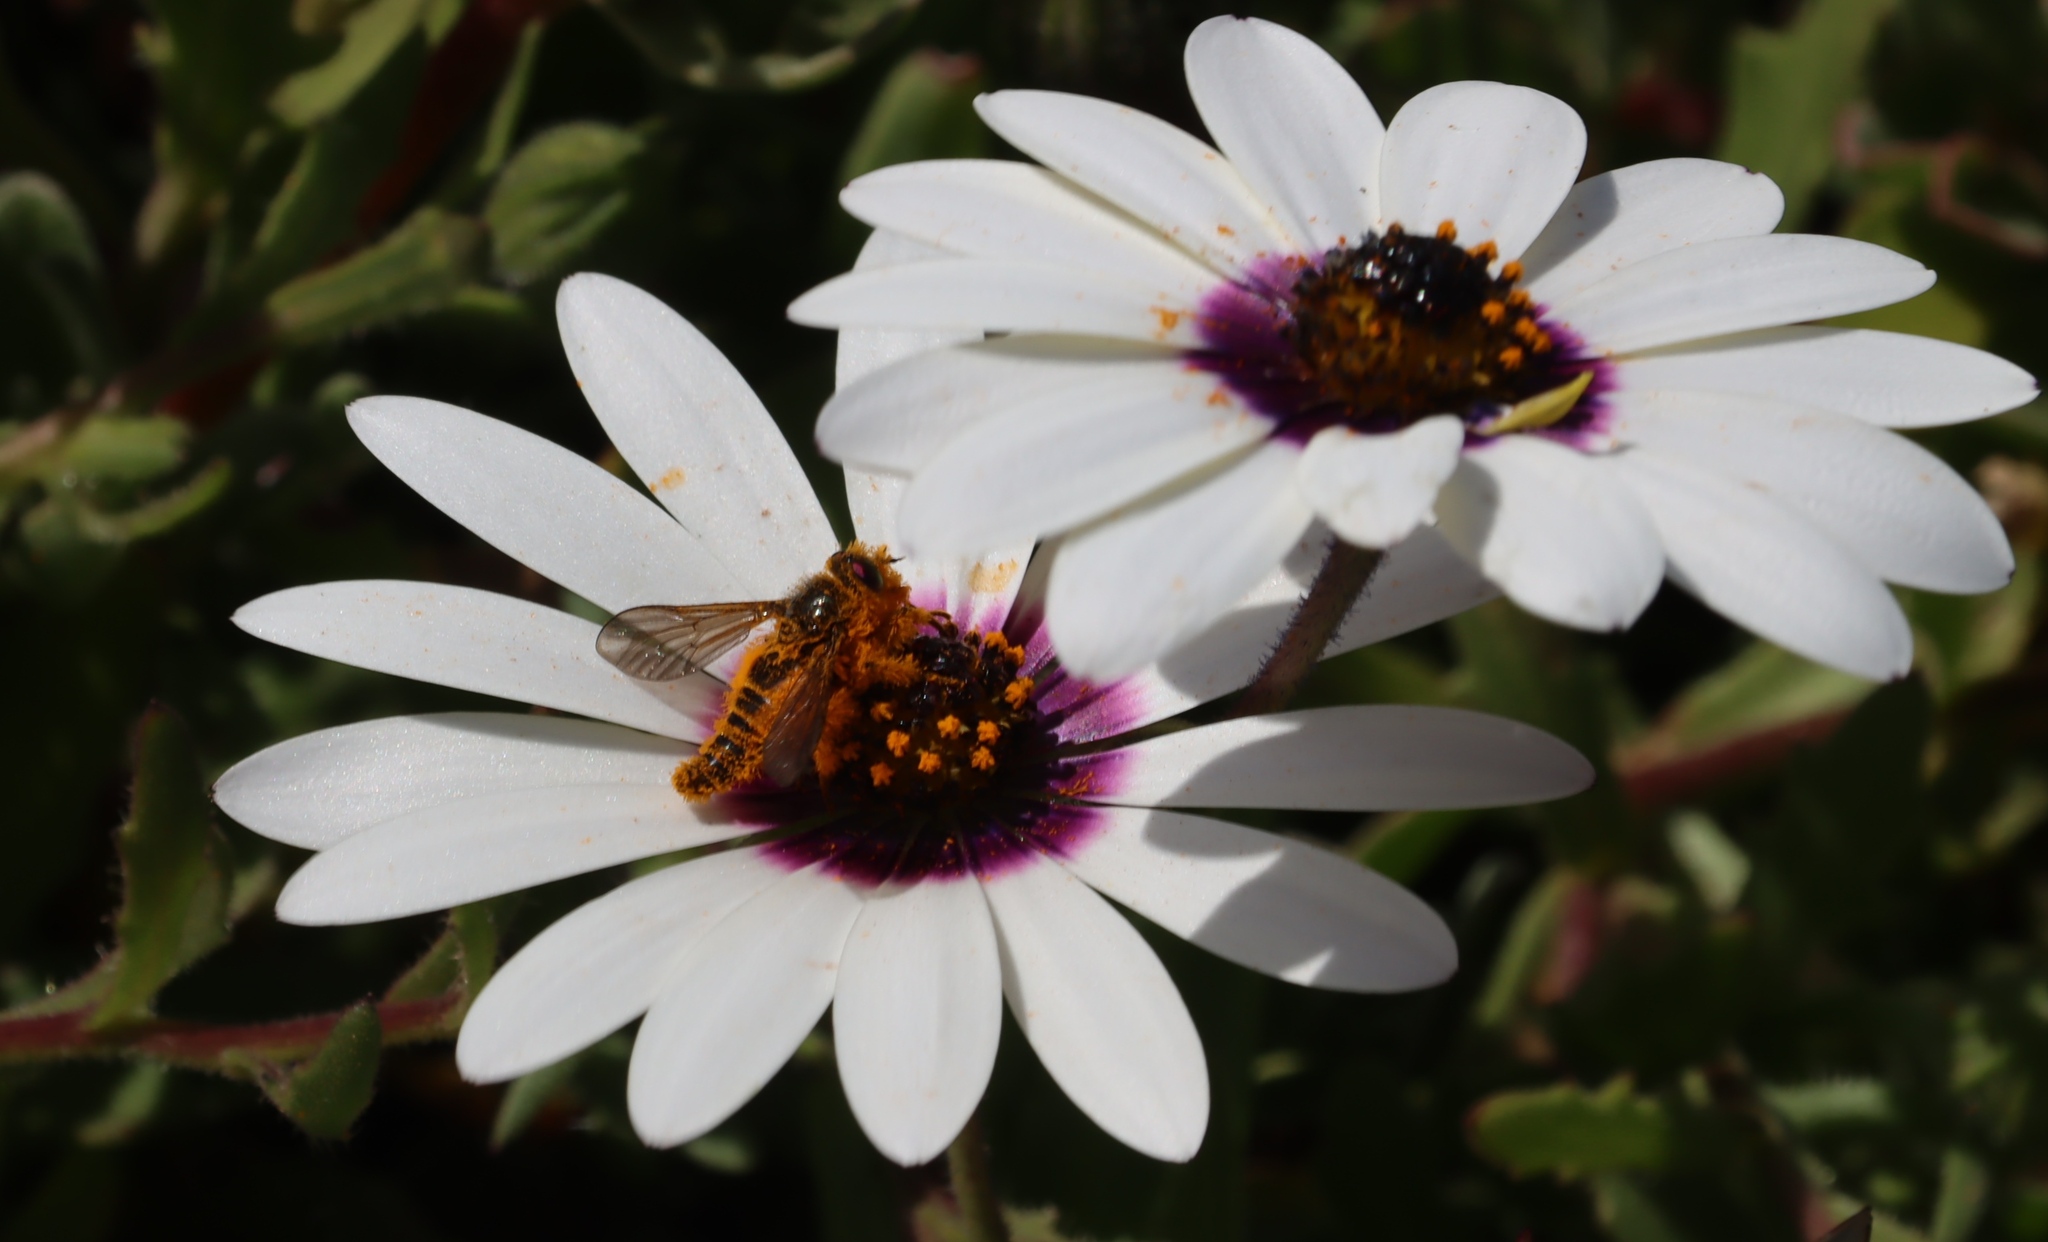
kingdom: Animalia
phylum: Arthropoda
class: Insecta
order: Diptera
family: Tabanidae
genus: Rhigioglossa
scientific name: Rhigioglossa nitens
